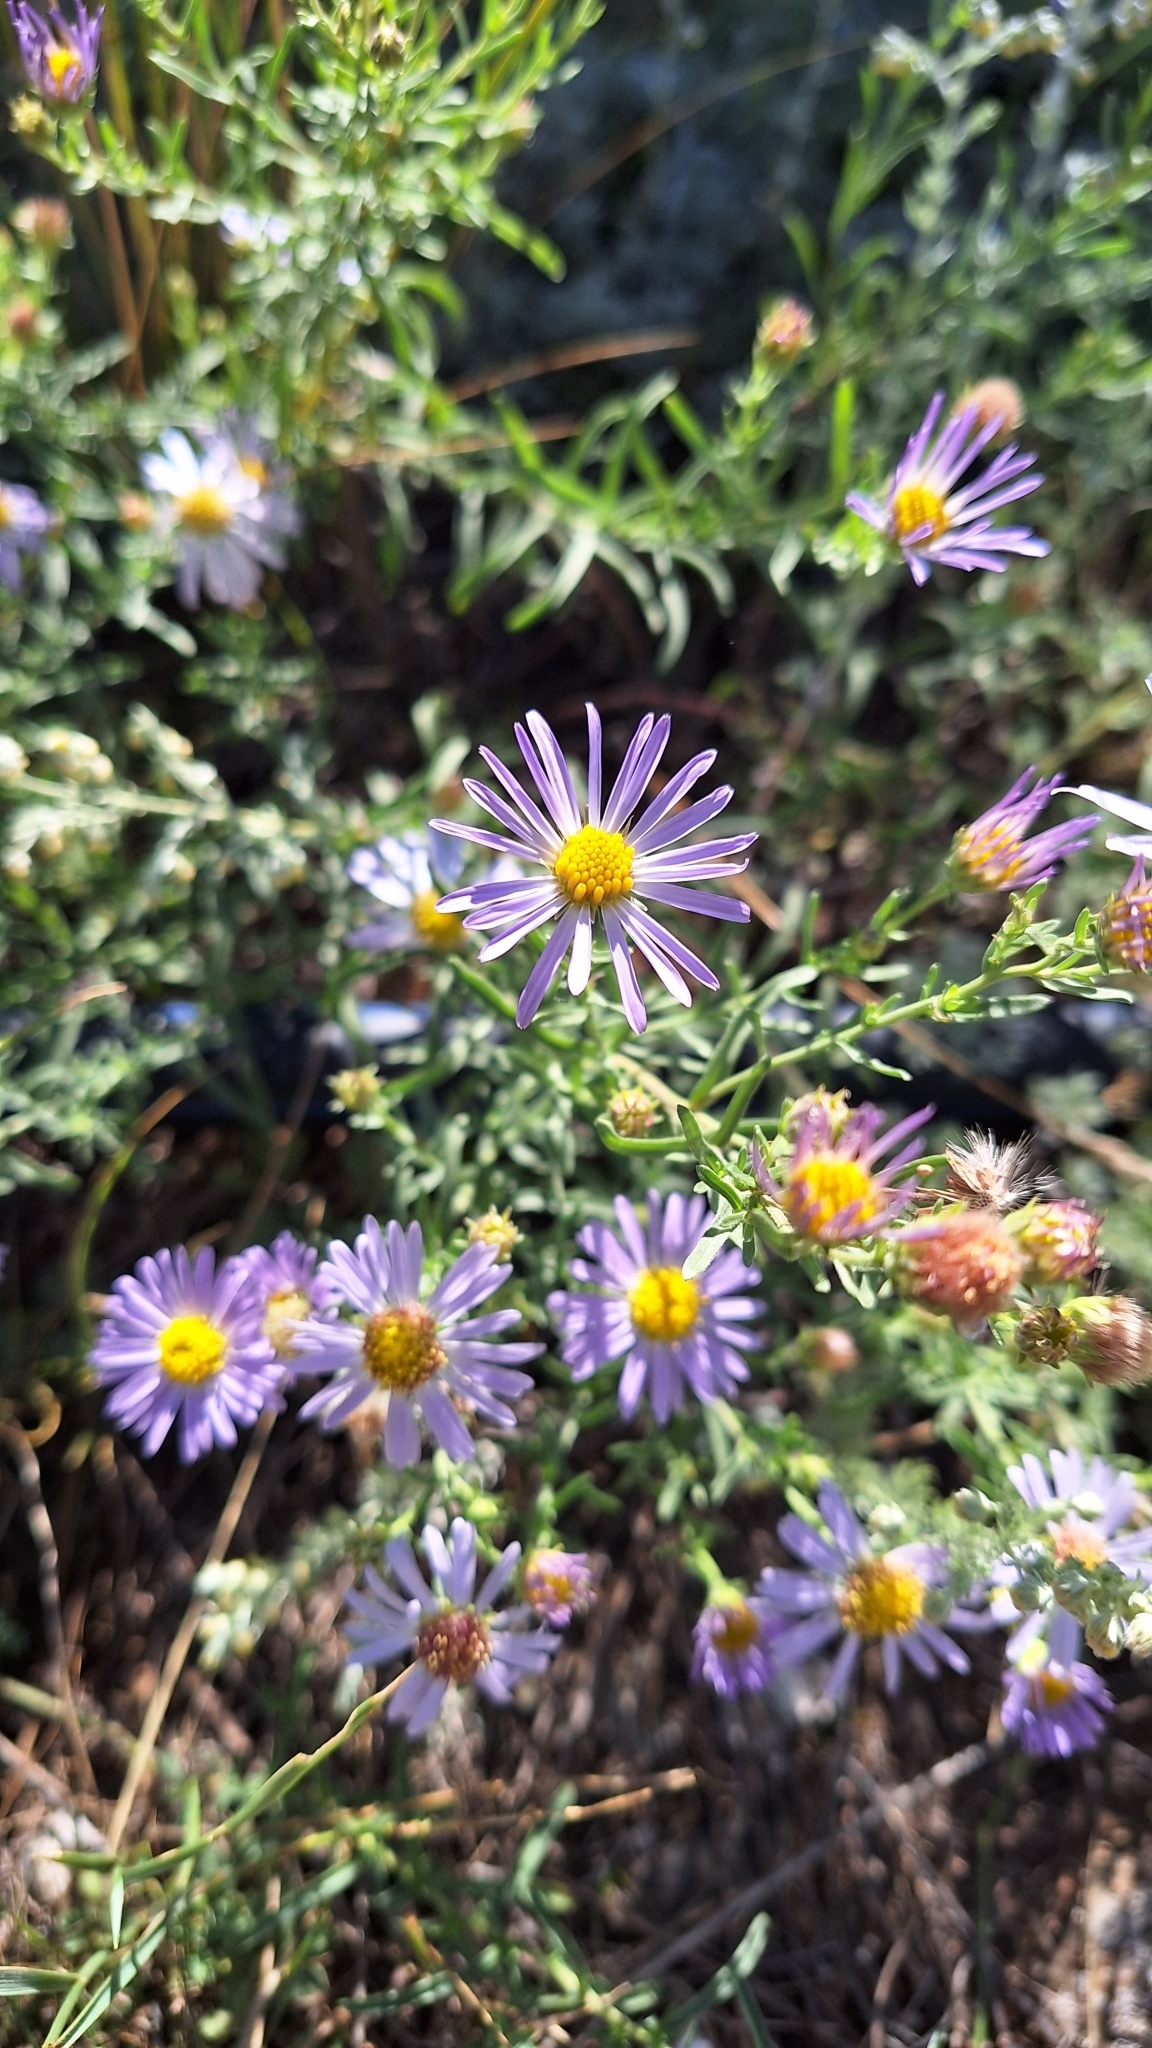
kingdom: Plantae
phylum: Tracheophyta
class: Magnoliopsida
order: Asterales
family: Asteraceae
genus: Heteropappus
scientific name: Heteropappus altaicus
